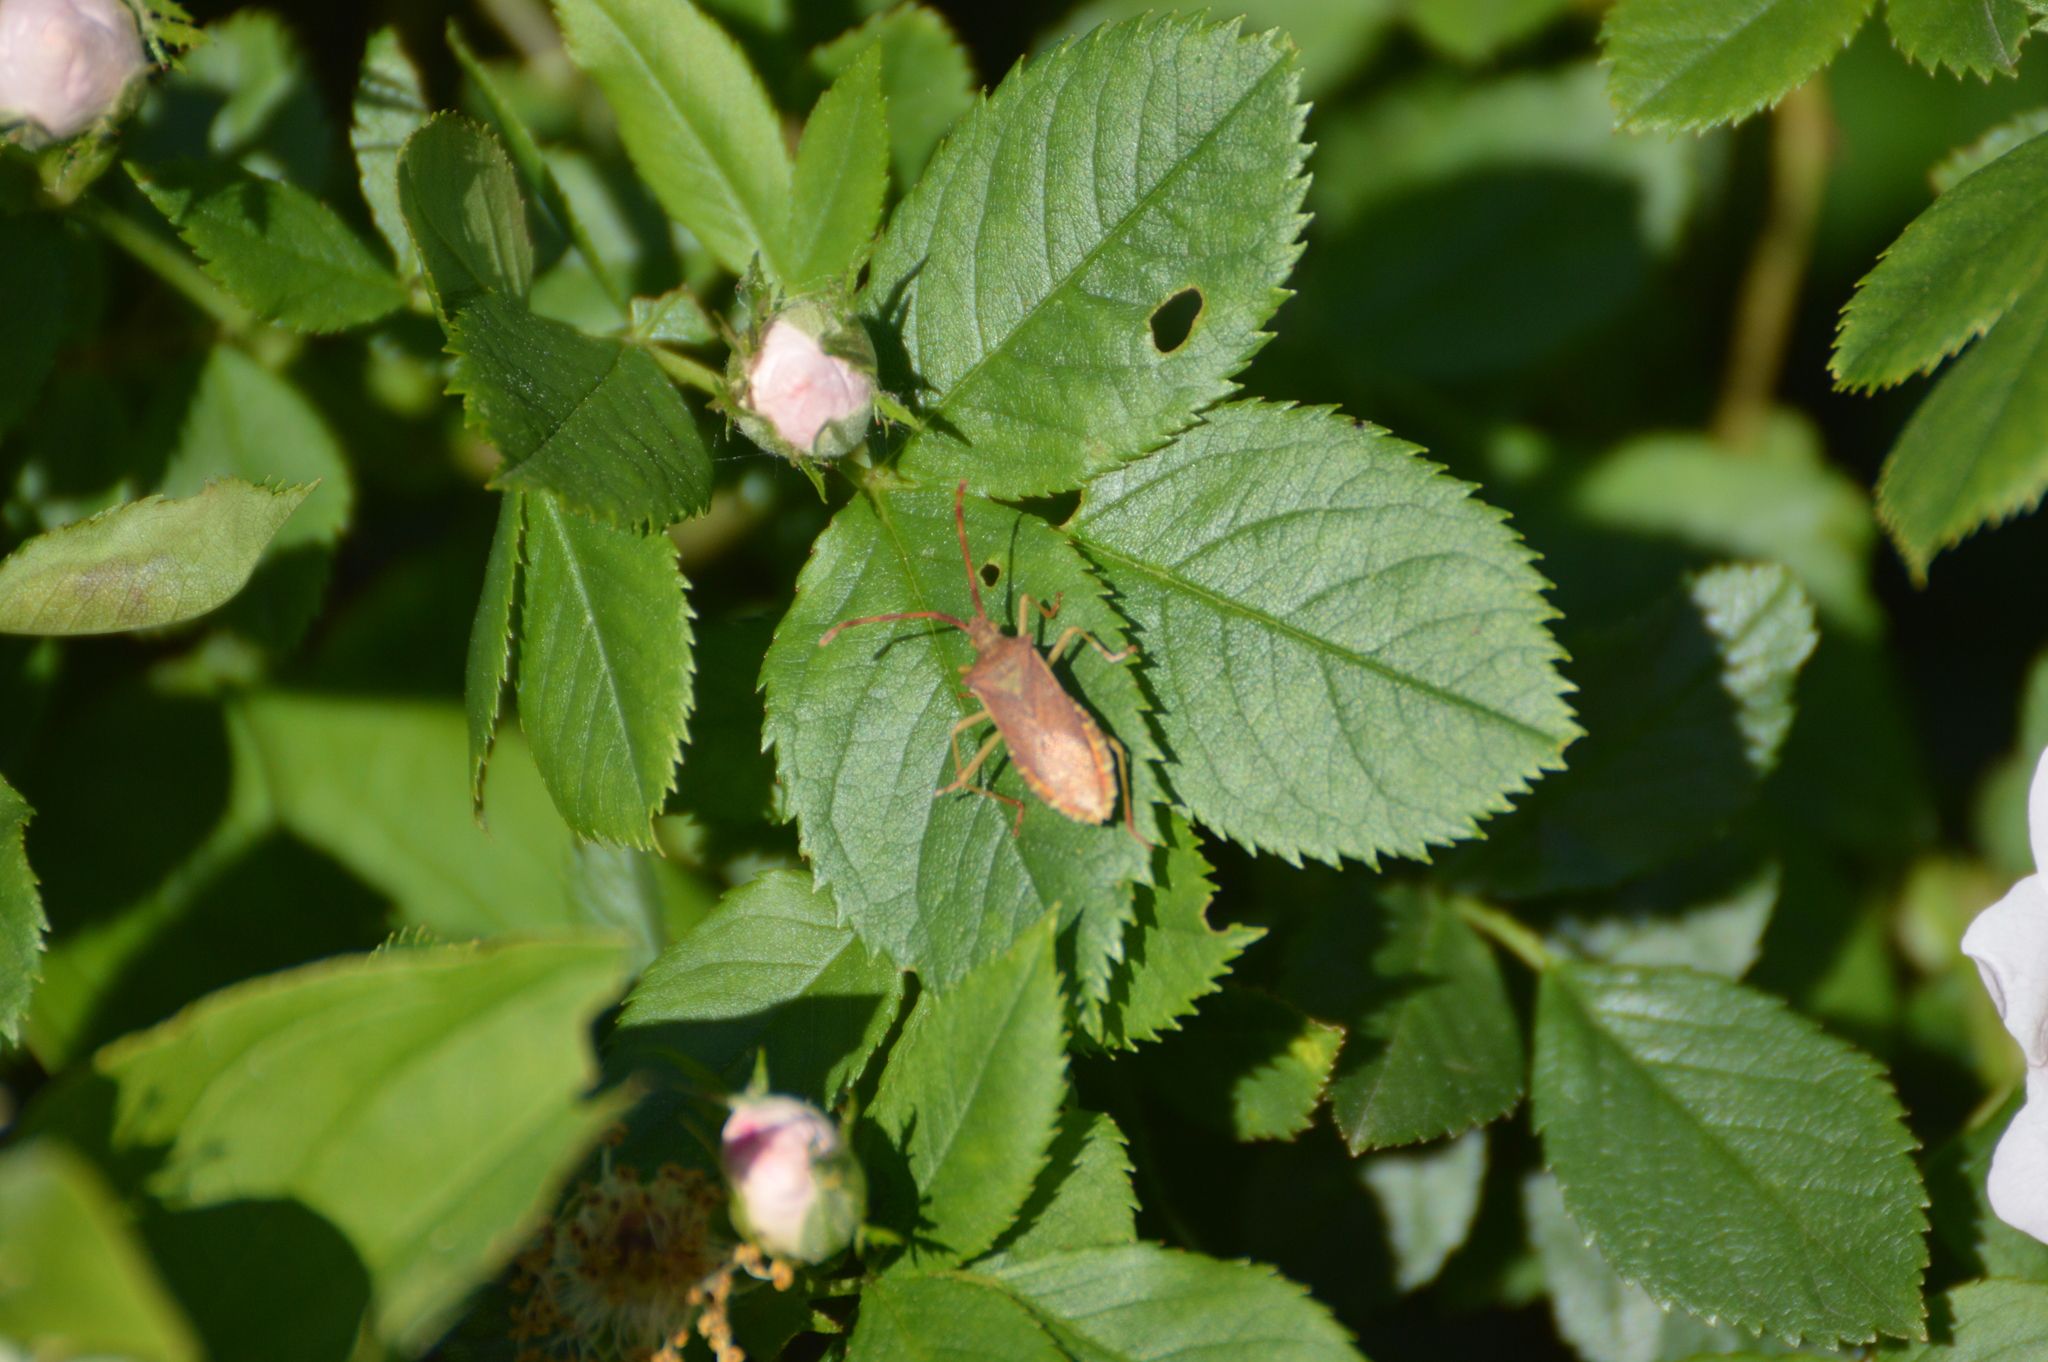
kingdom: Animalia
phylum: Arthropoda
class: Insecta
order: Hemiptera
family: Coreidae
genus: Gonocerus
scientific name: Gonocerus acuteangulatus
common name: Box bug
